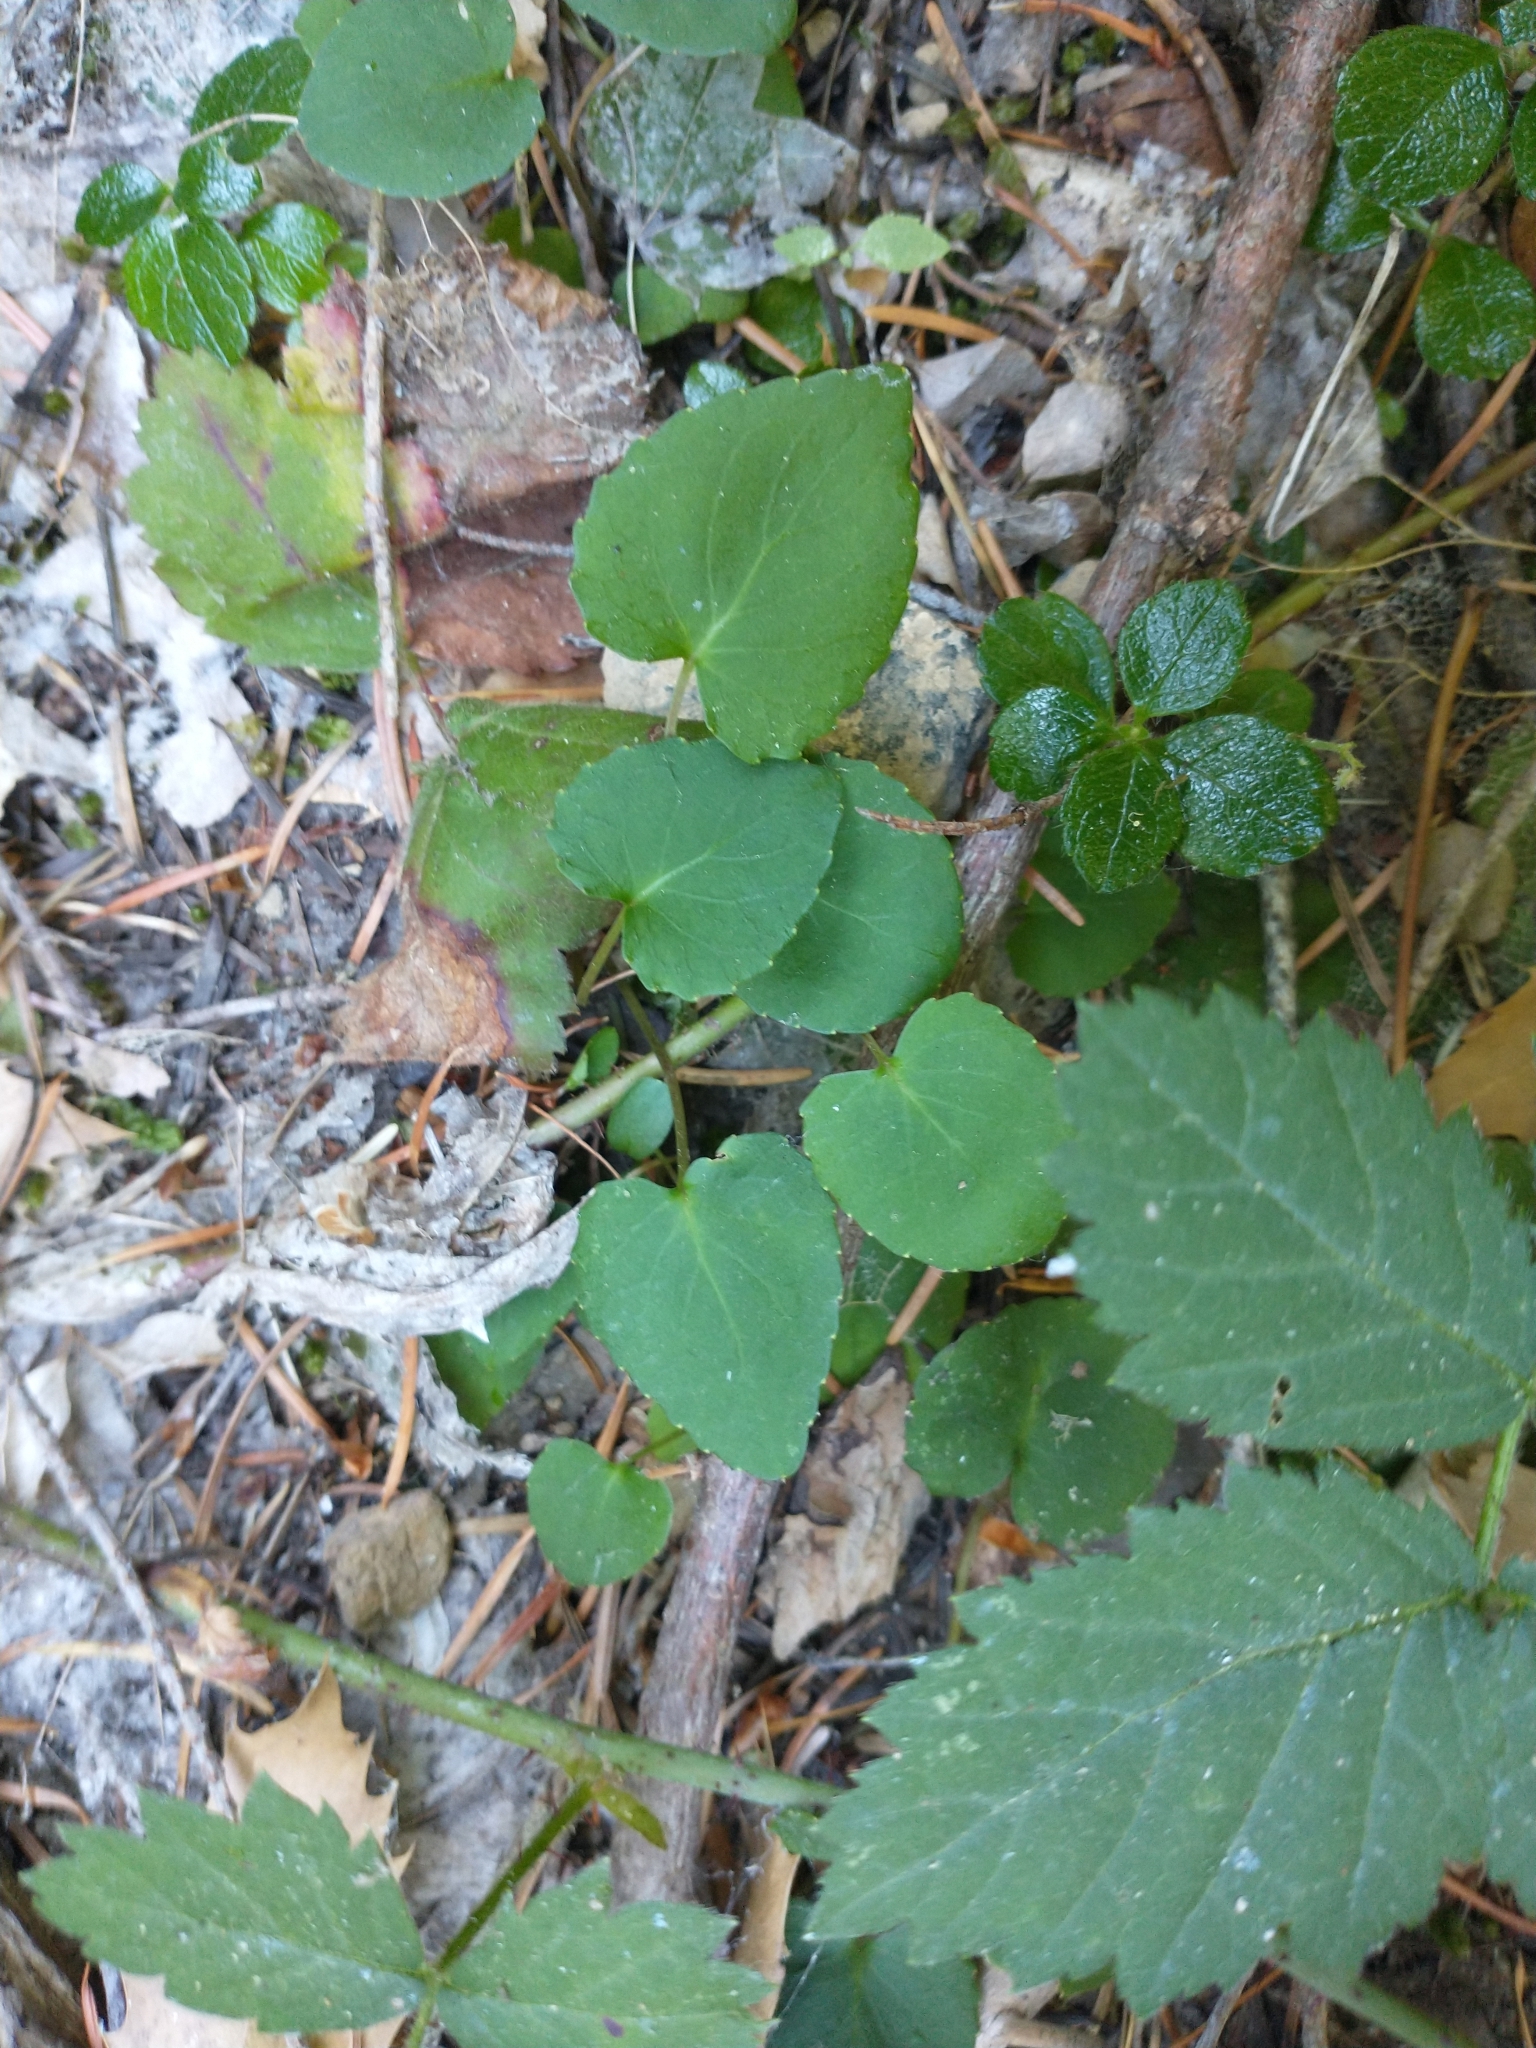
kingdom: Plantae
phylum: Tracheophyta
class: Magnoliopsida
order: Malpighiales
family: Violaceae
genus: Viola
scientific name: Viola sempervirens
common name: Evergreen violet
